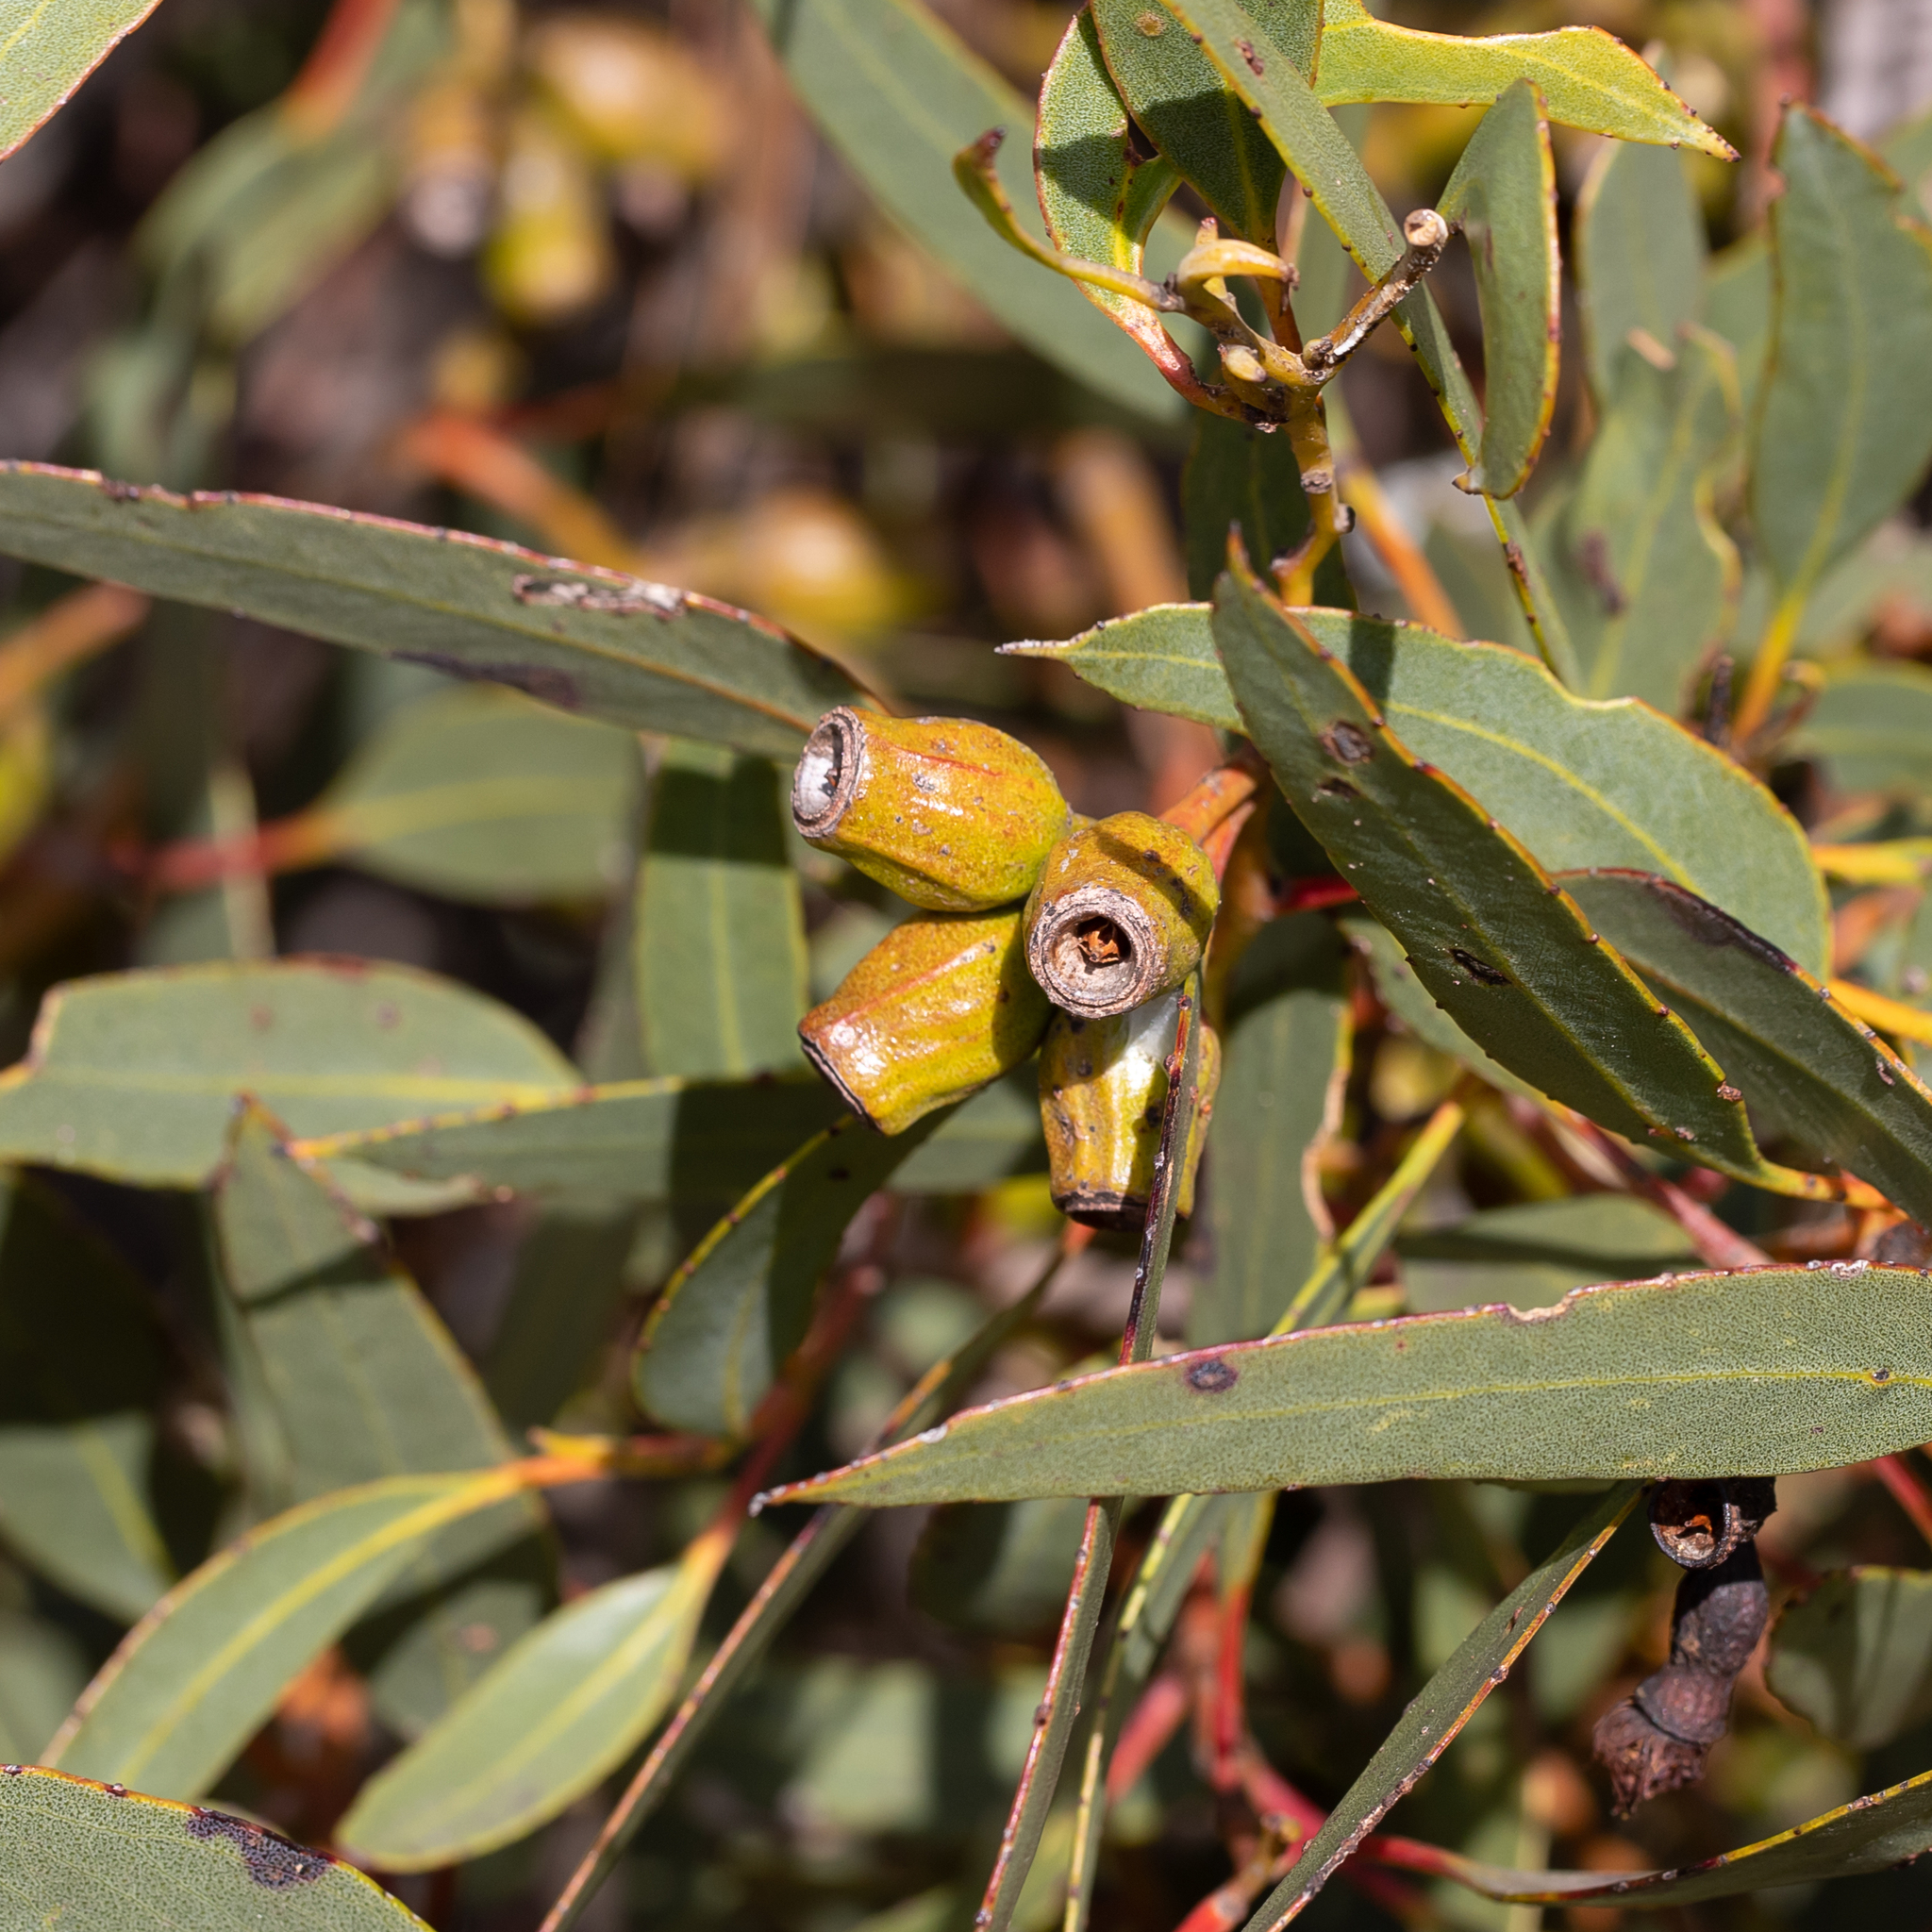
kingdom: Plantae
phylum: Tracheophyta
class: Magnoliopsida
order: Myrtales
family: Myrtaceae
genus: Eucalyptus
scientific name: Eucalyptus incrassata
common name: Ridge-fruit mallee
